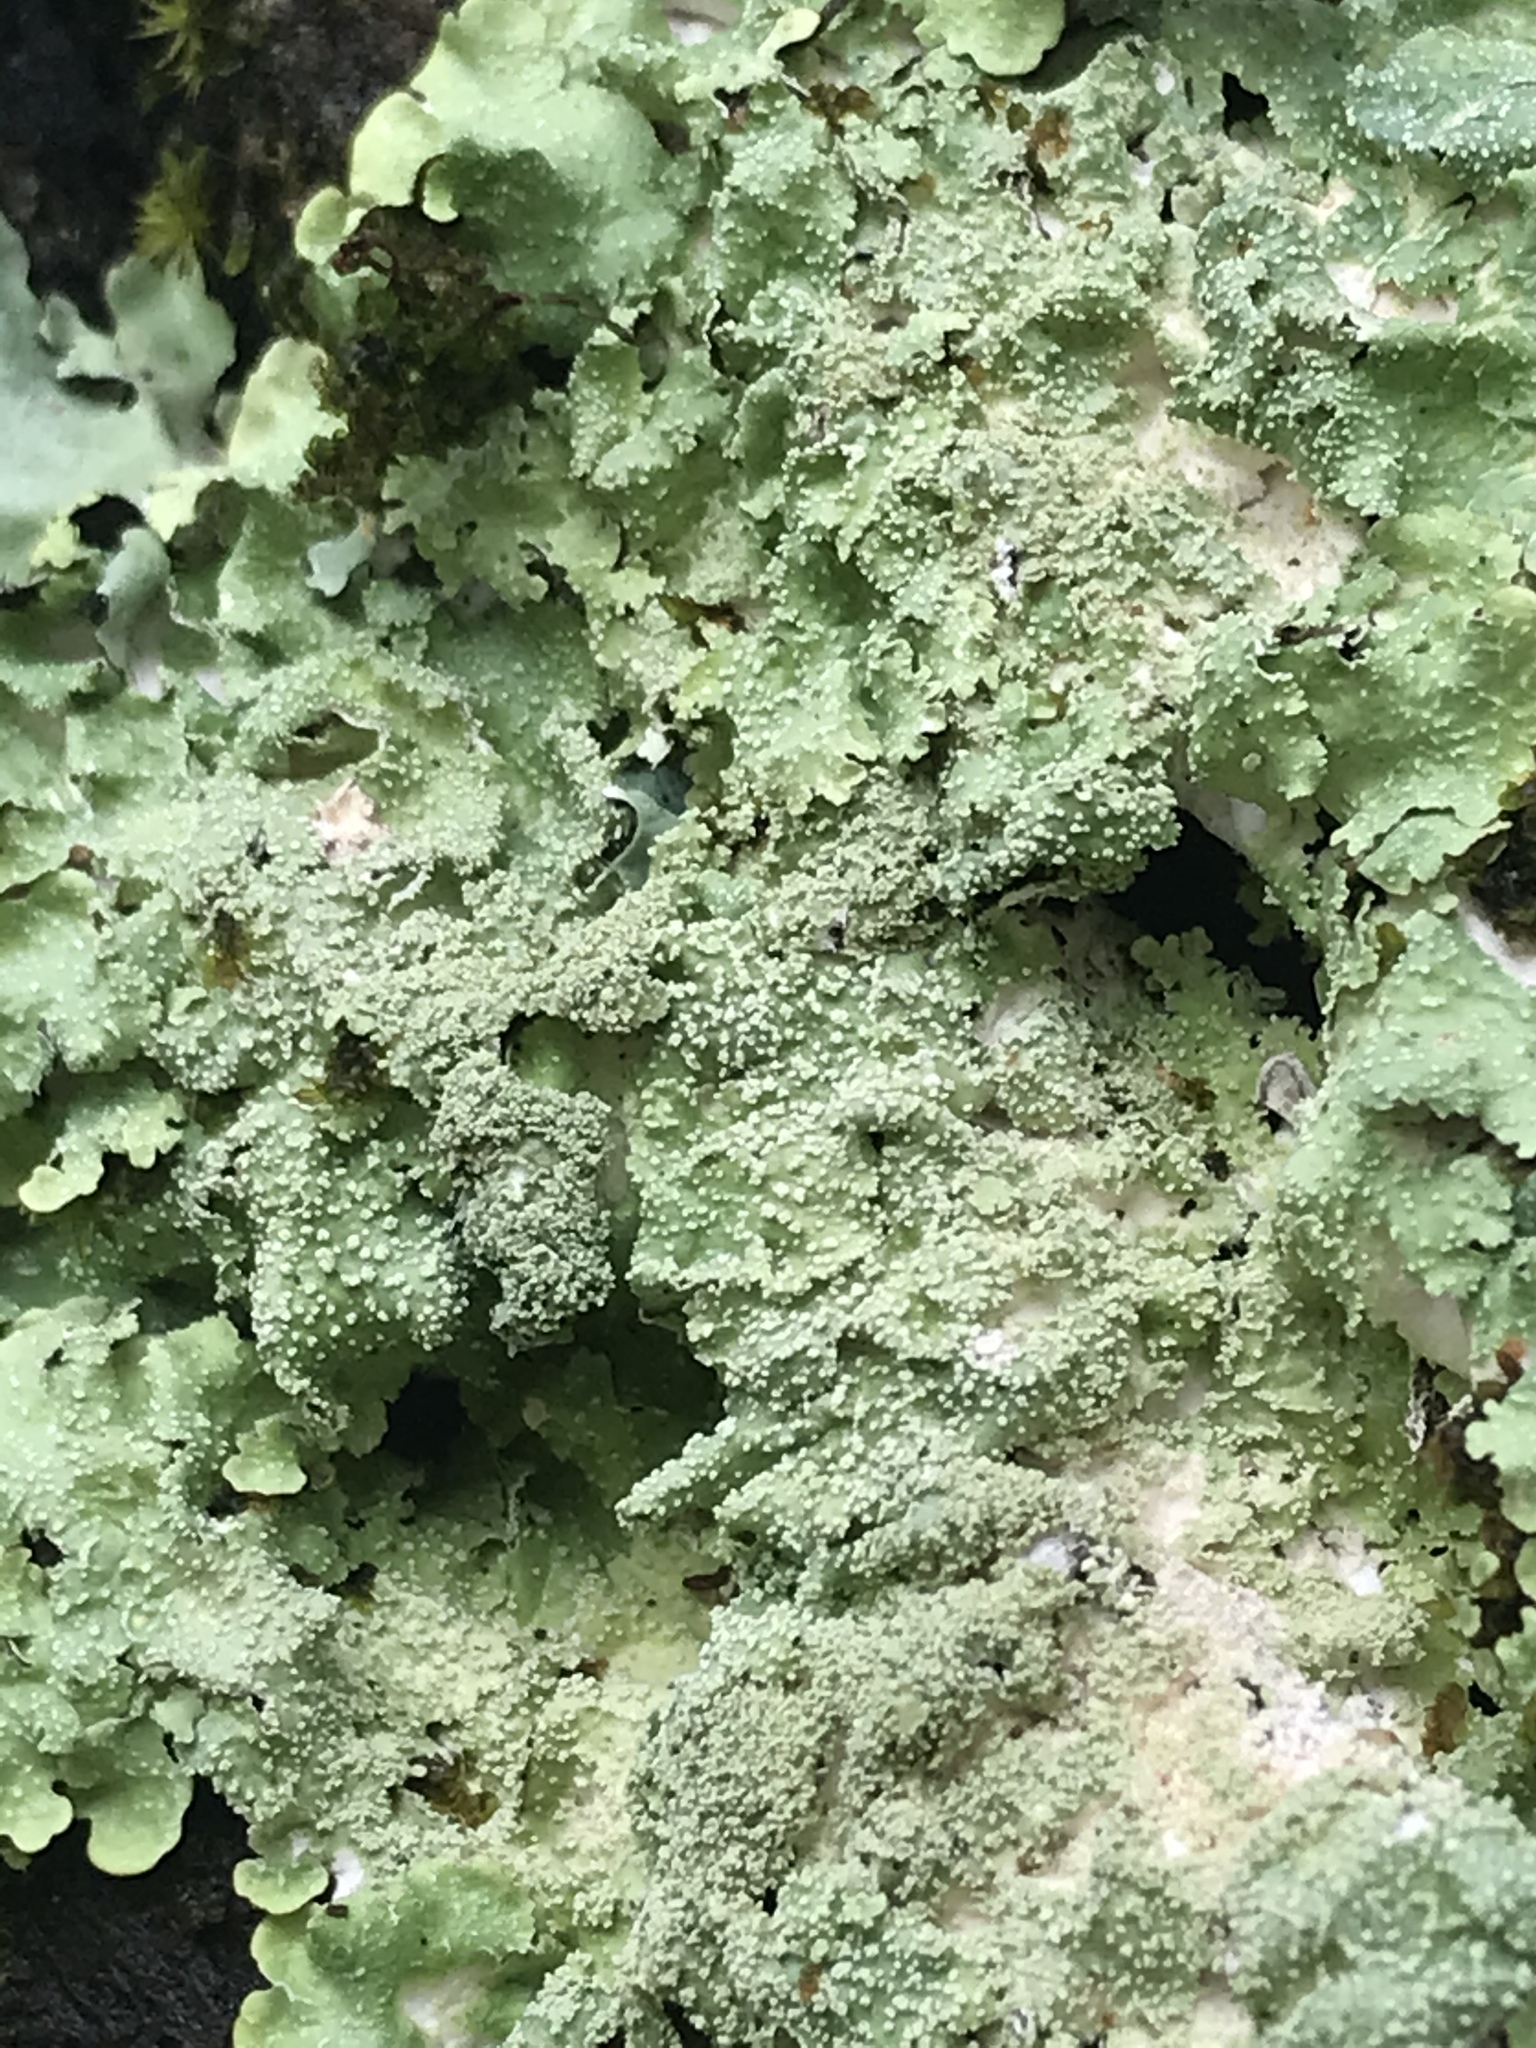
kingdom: Fungi
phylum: Ascomycota
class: Lecanoromycetes
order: Lecanorales
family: Parmeliaceae
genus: Punctelia
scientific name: Punctelia rudecta
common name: Rough speckled shield lichen
